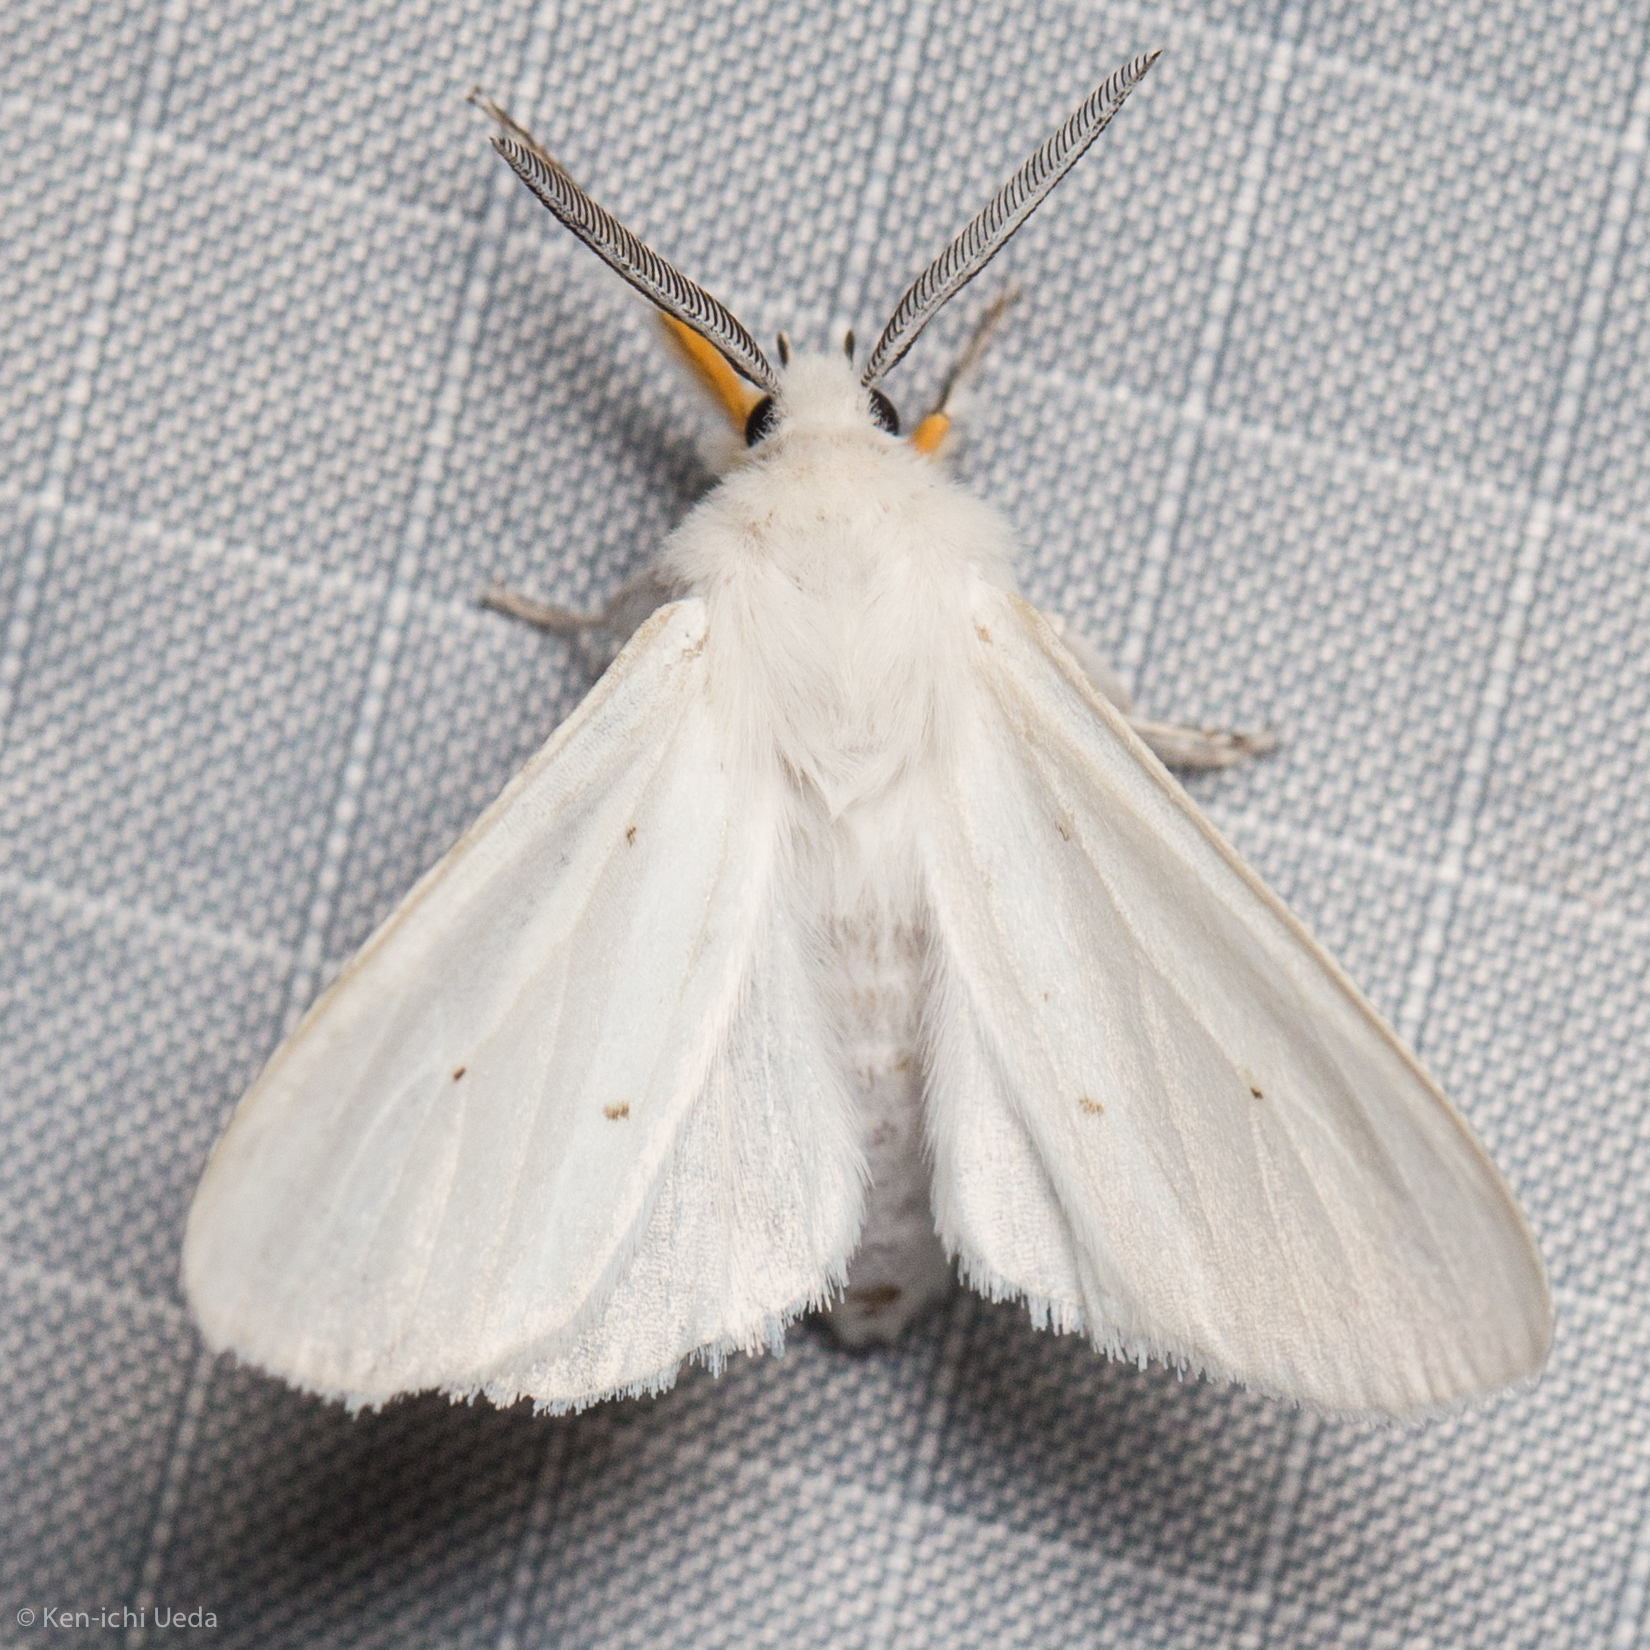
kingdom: Animalia
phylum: Arthropoda
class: Insecta
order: Lepidoptera
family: Erebidae
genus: Spilosoma
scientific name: Spilosoma congrua
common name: Agreeable tiger moth
